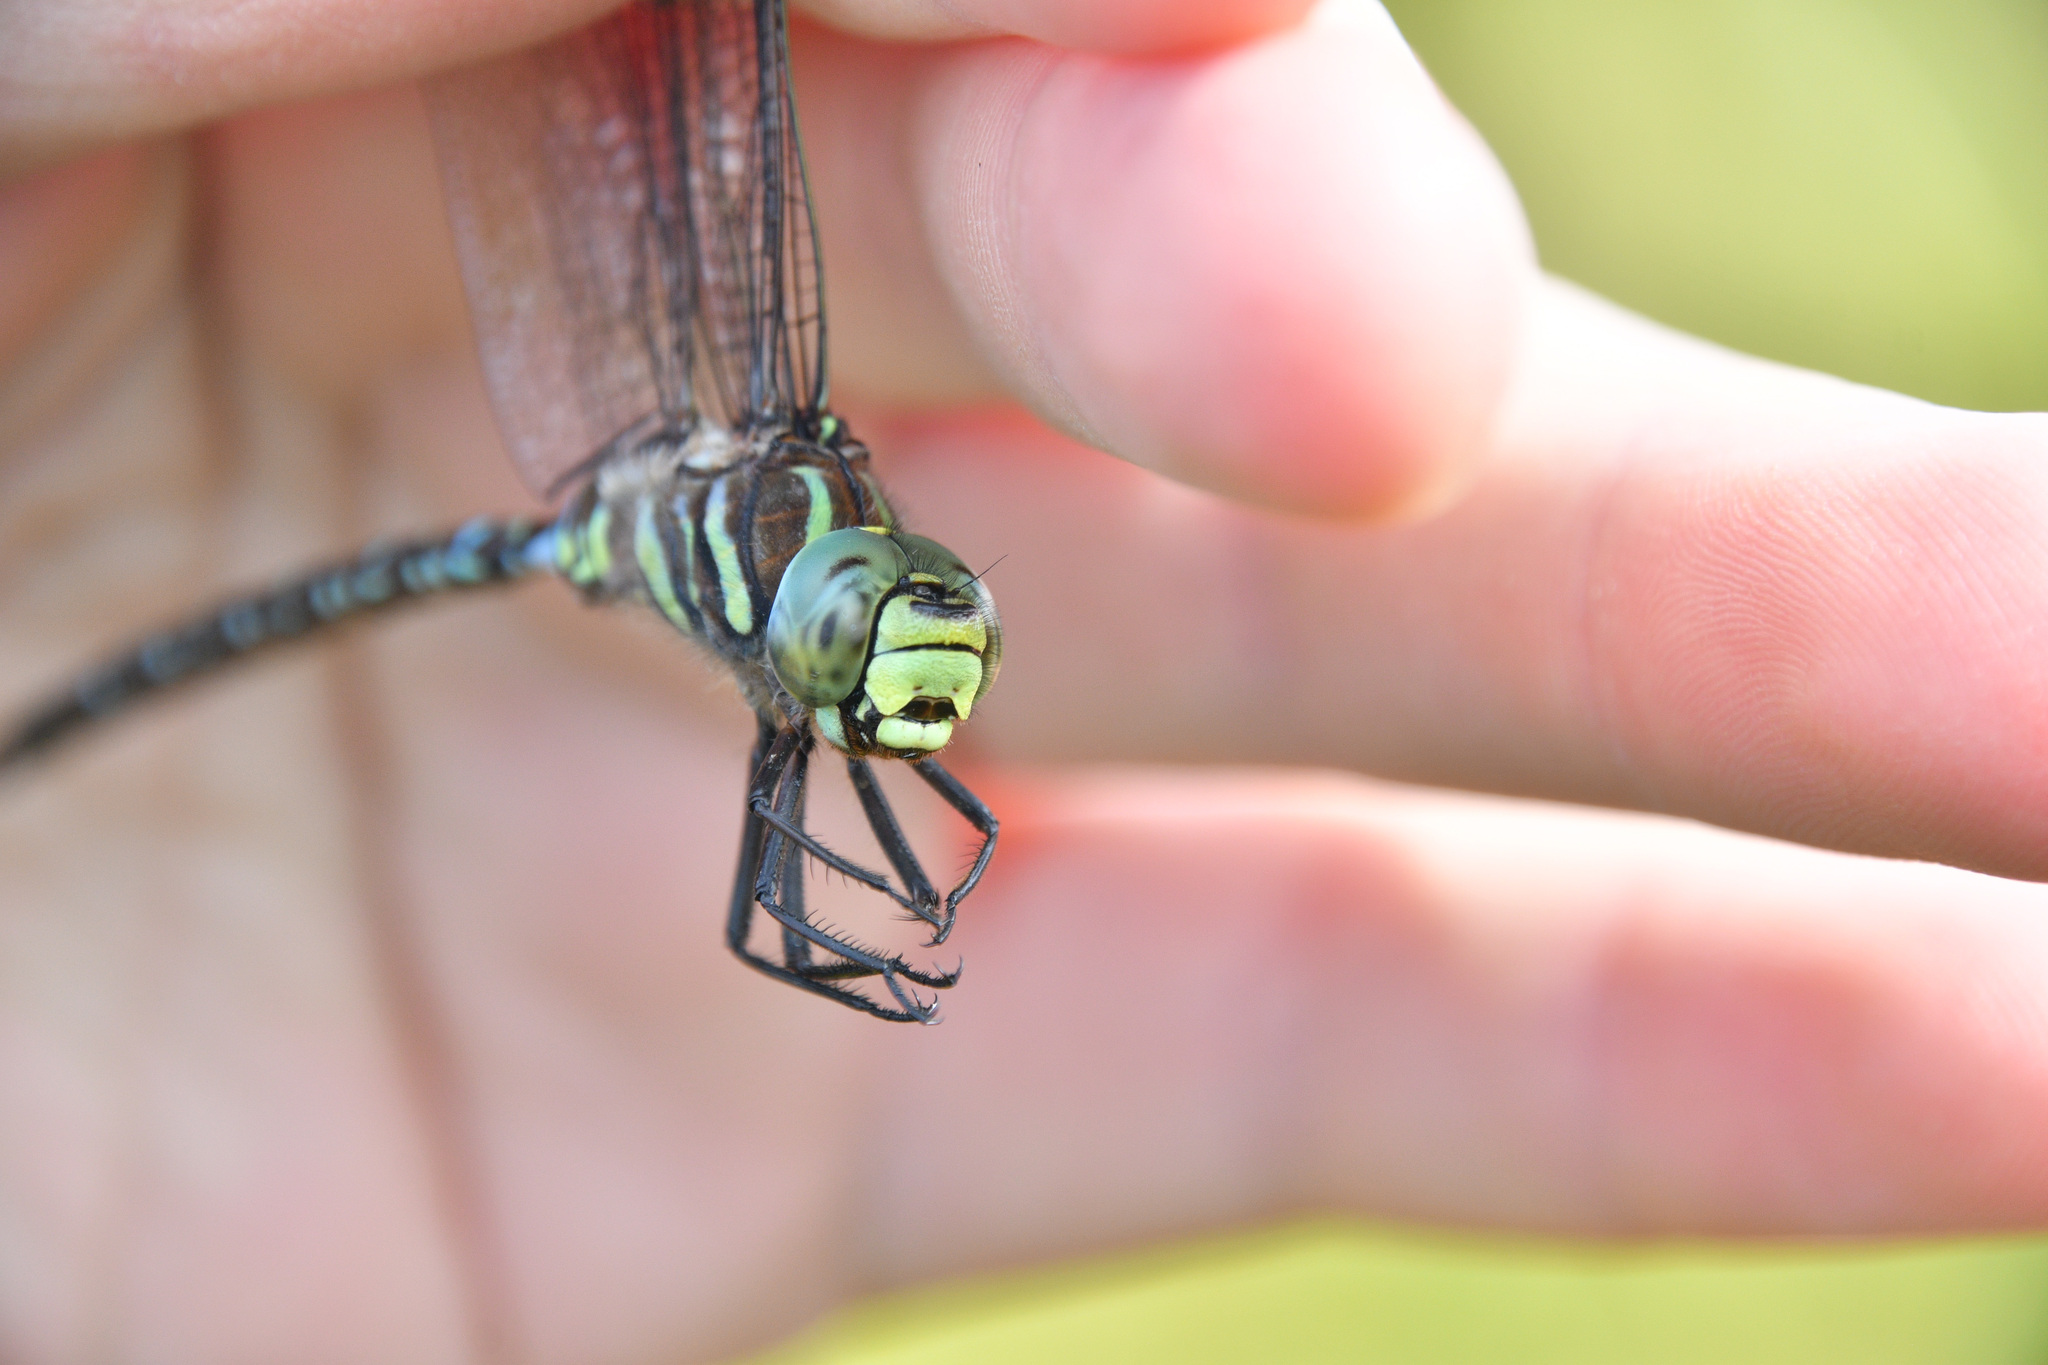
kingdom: Animalia
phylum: Arthropoda
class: Insecta
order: Odonata
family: Aeshnidae
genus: Aeshna
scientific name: Aeshna juncea
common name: Moorland hawker
